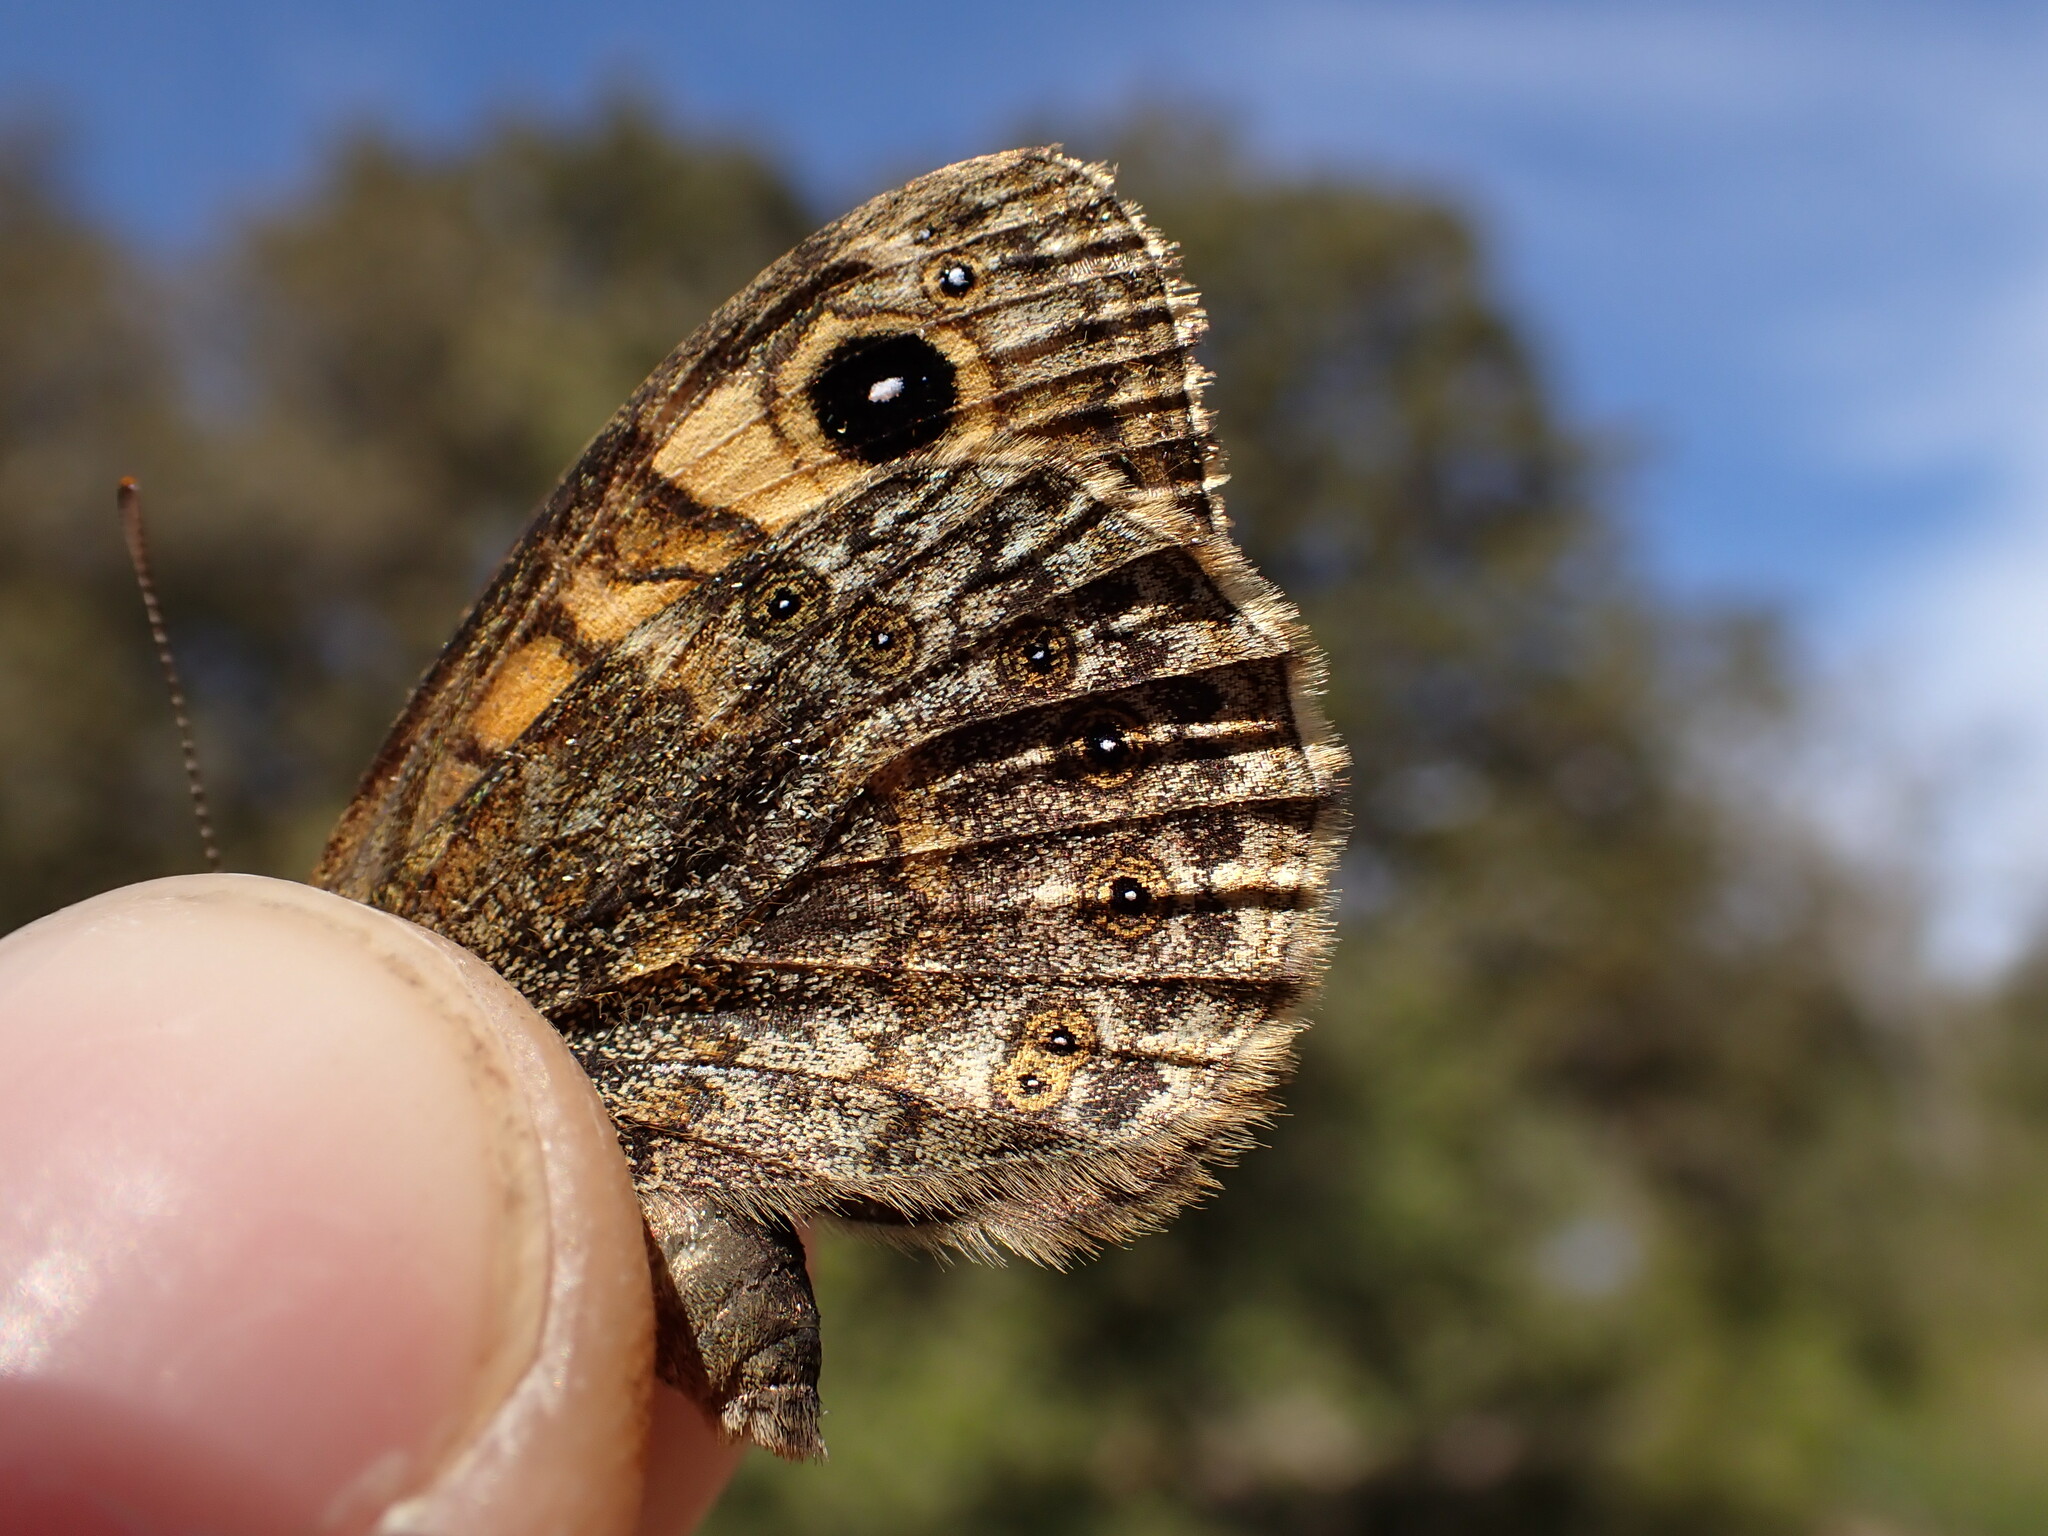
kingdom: Animalia
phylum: Arthropoda
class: Insecta
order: Lepidoptera
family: Nymphalidae
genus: Pararge
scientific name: Pararge Lasiommata megera
